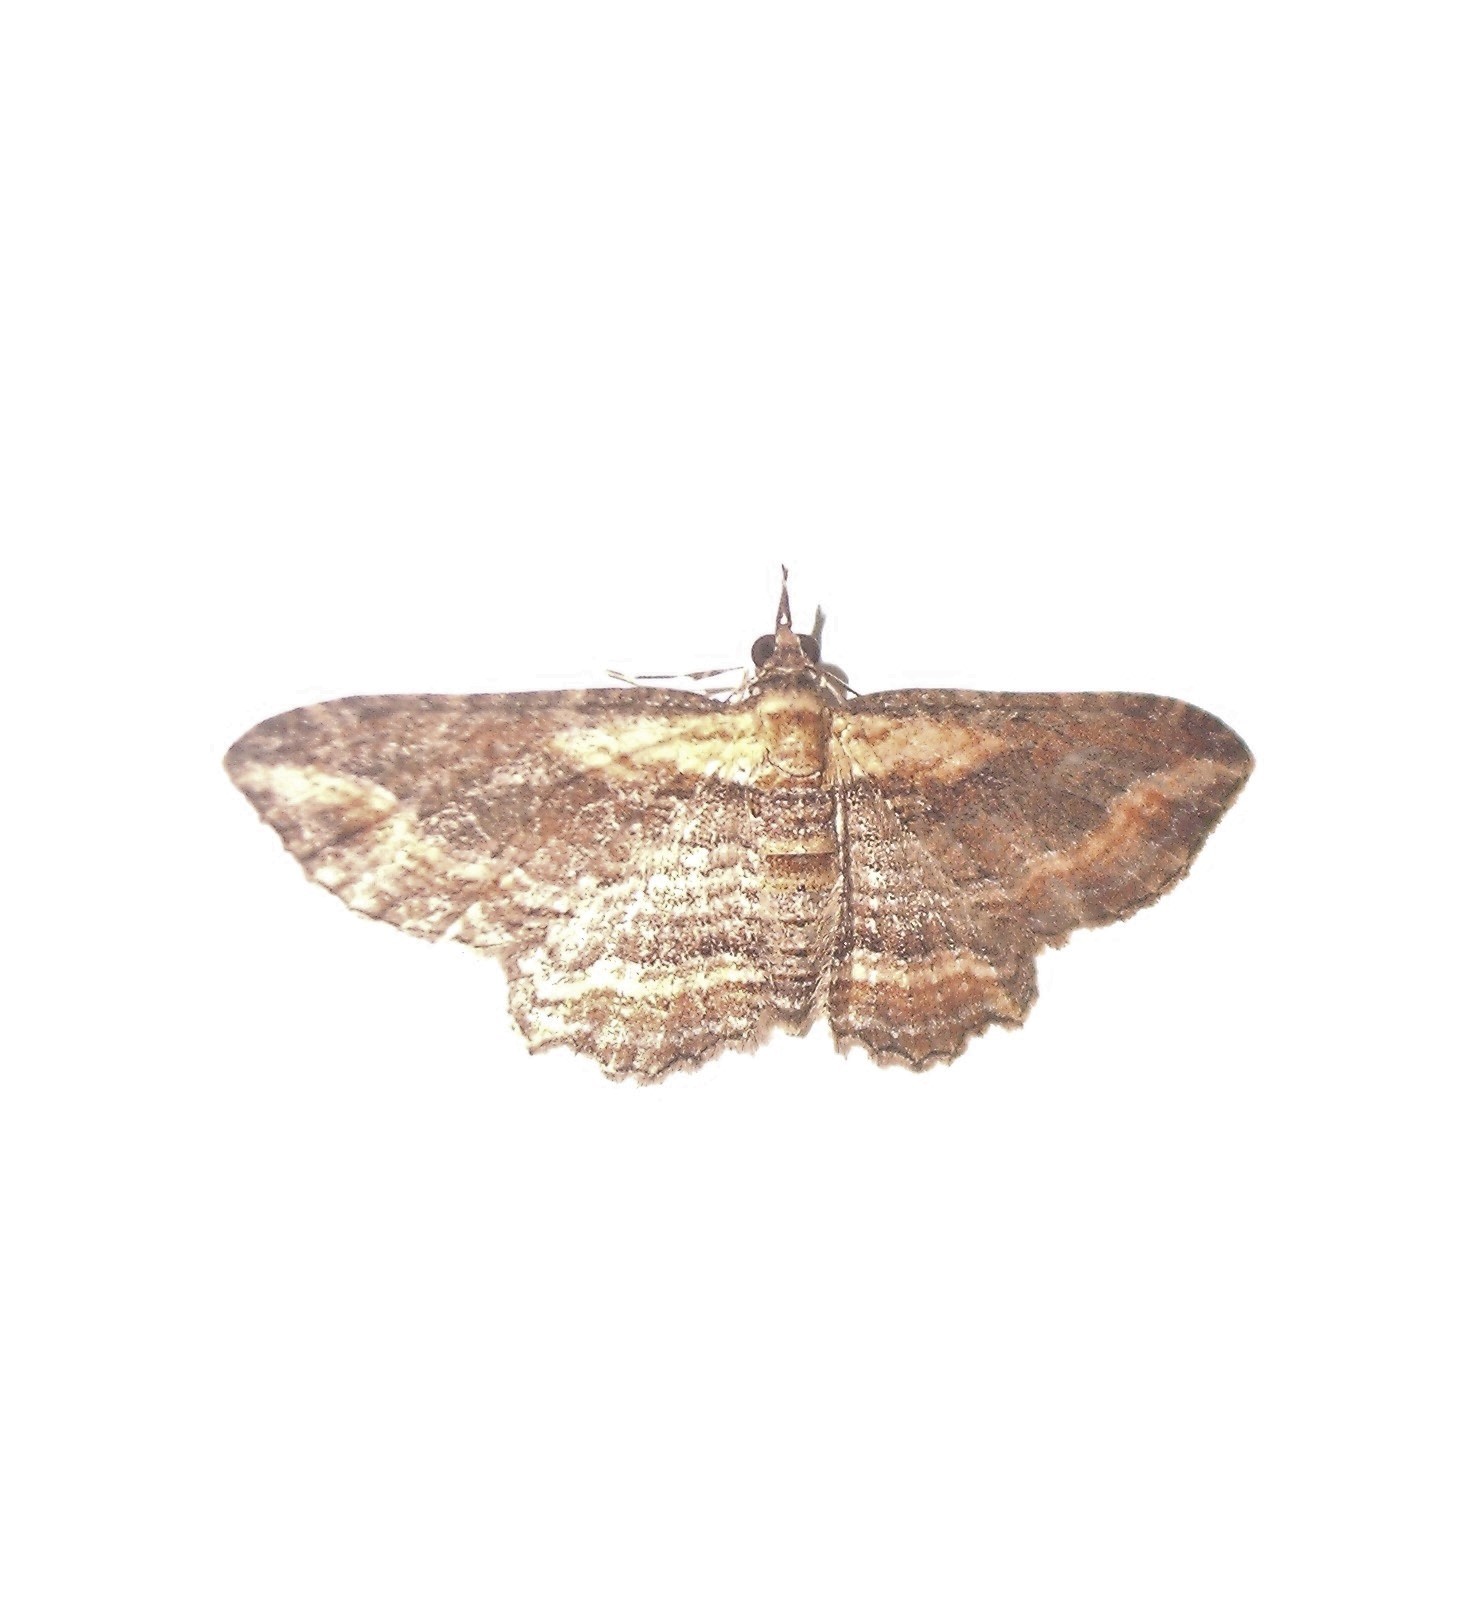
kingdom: Animalia
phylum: Arthropoda
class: Insecta
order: Lepidoptera
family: Geometridae
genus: Chloroclystis
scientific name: Chloroclystis filata
